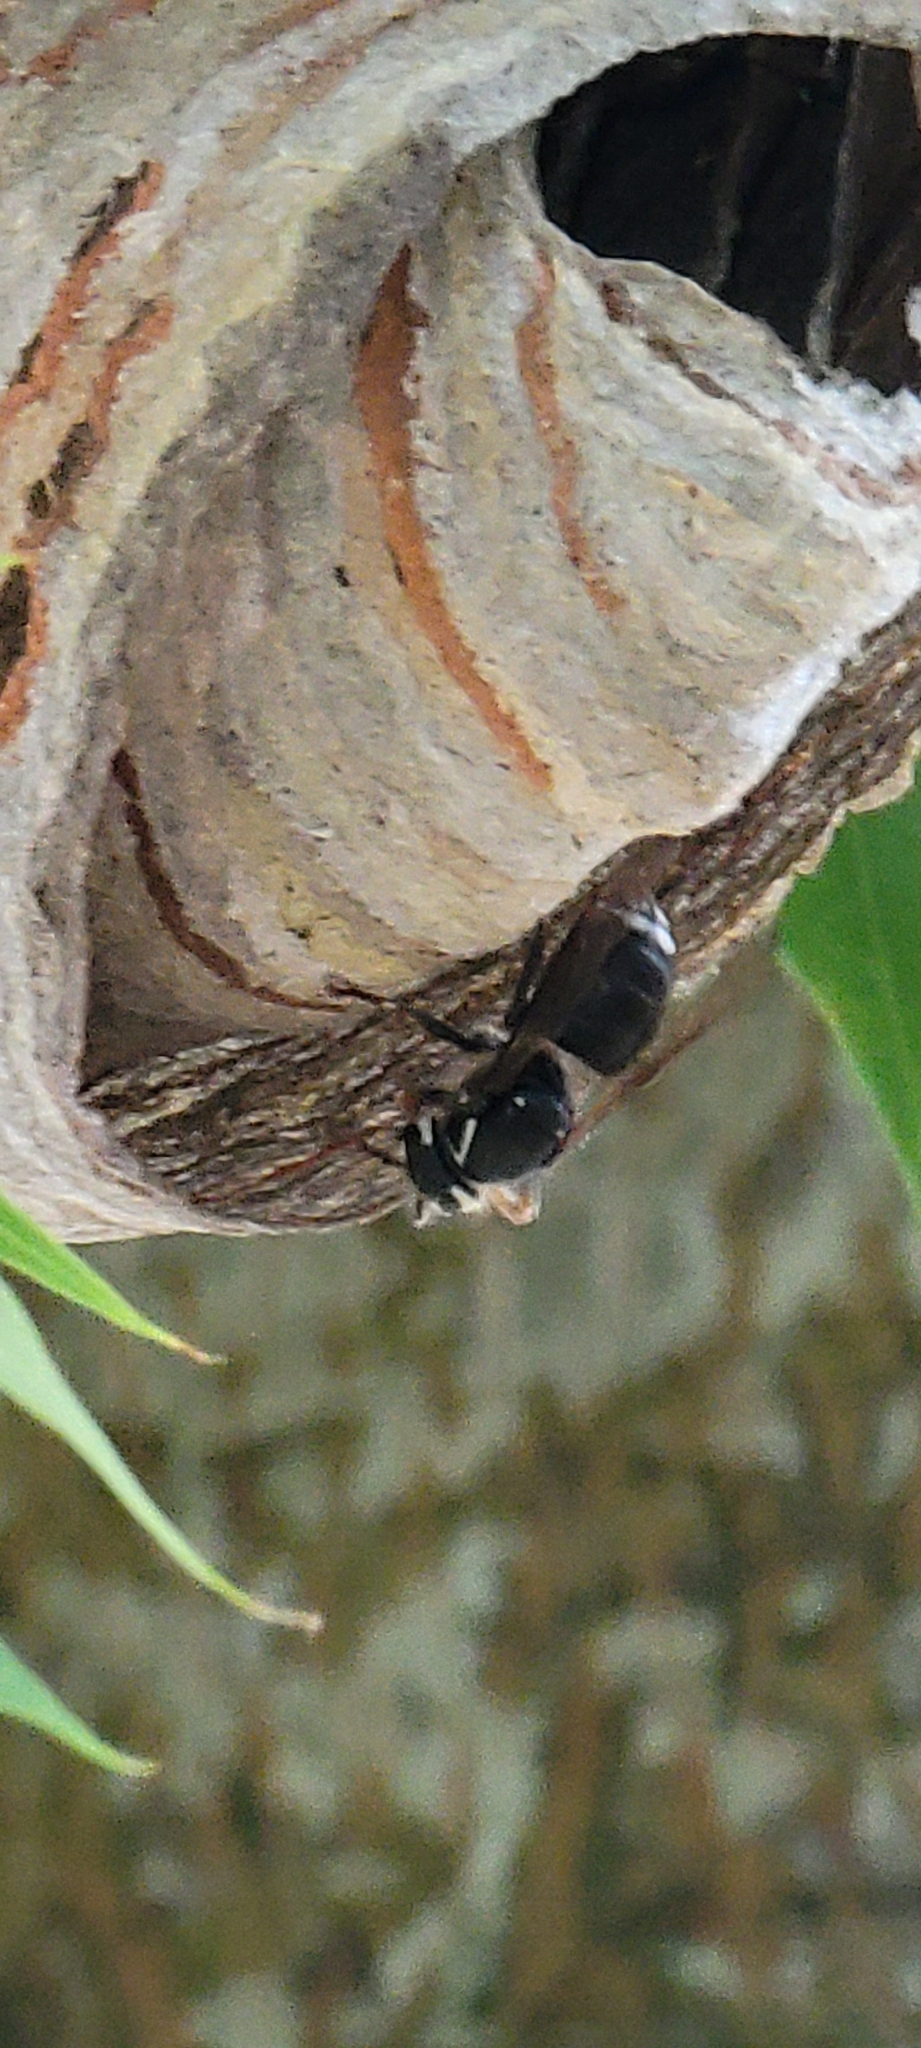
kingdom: Animalia
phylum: Arthropoda
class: Insecta
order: Hymenoptera
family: Vespidae
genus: Dolichovespula
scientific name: Dolichovespula maculata
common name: Bald-faced hornet
